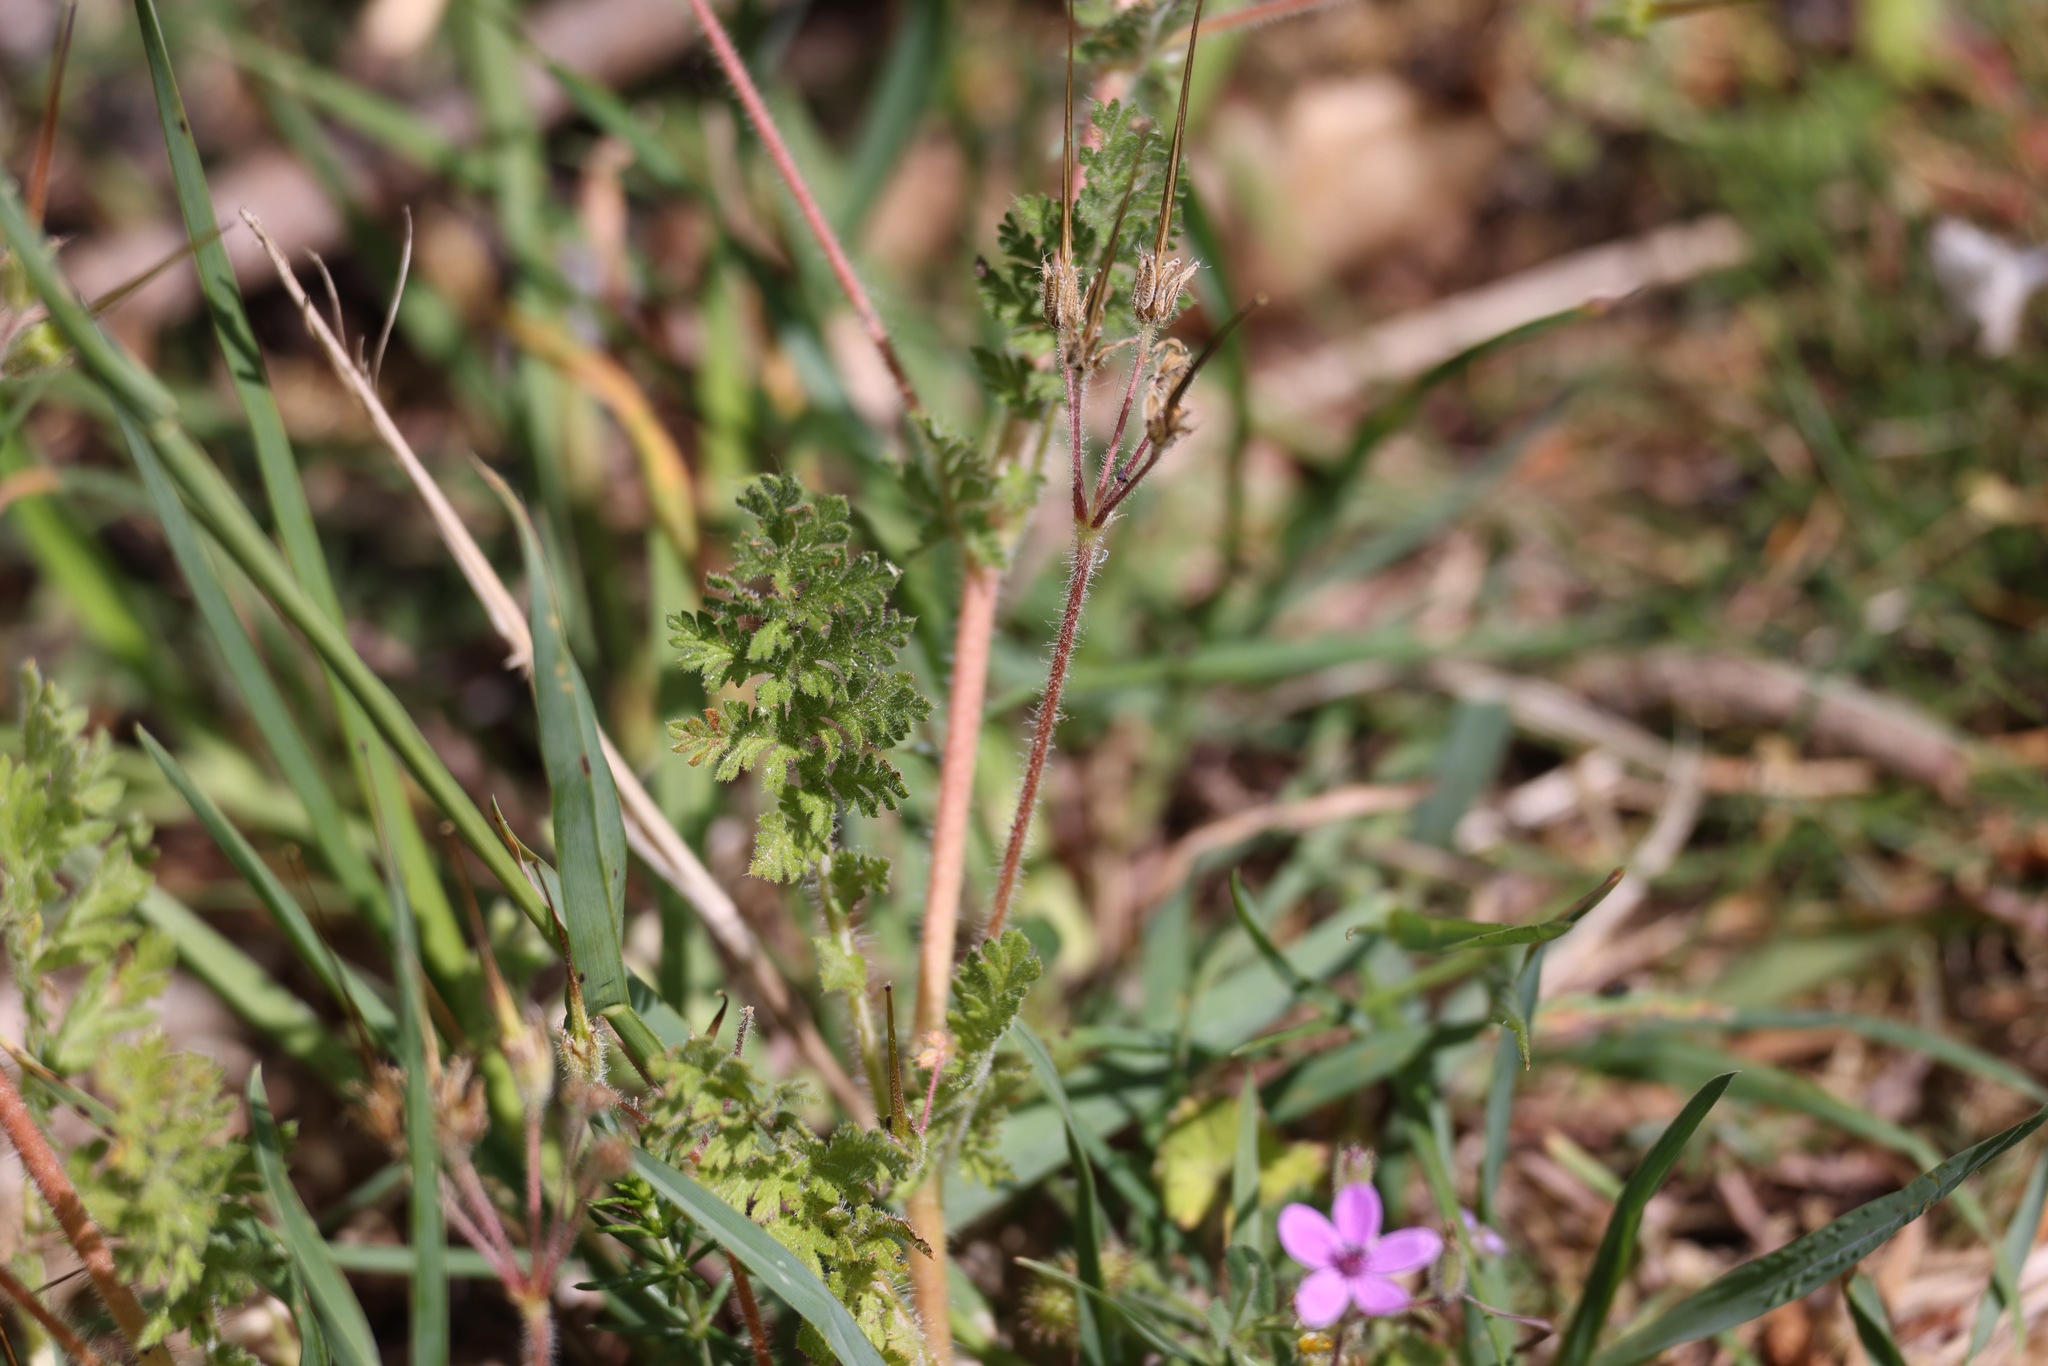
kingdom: Plantae
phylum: Tracheophyta
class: Magnoliopsida
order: Geraniales
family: Geraniaceae
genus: Erodium
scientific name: Erodium cicutarium
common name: Common stork's-bill
